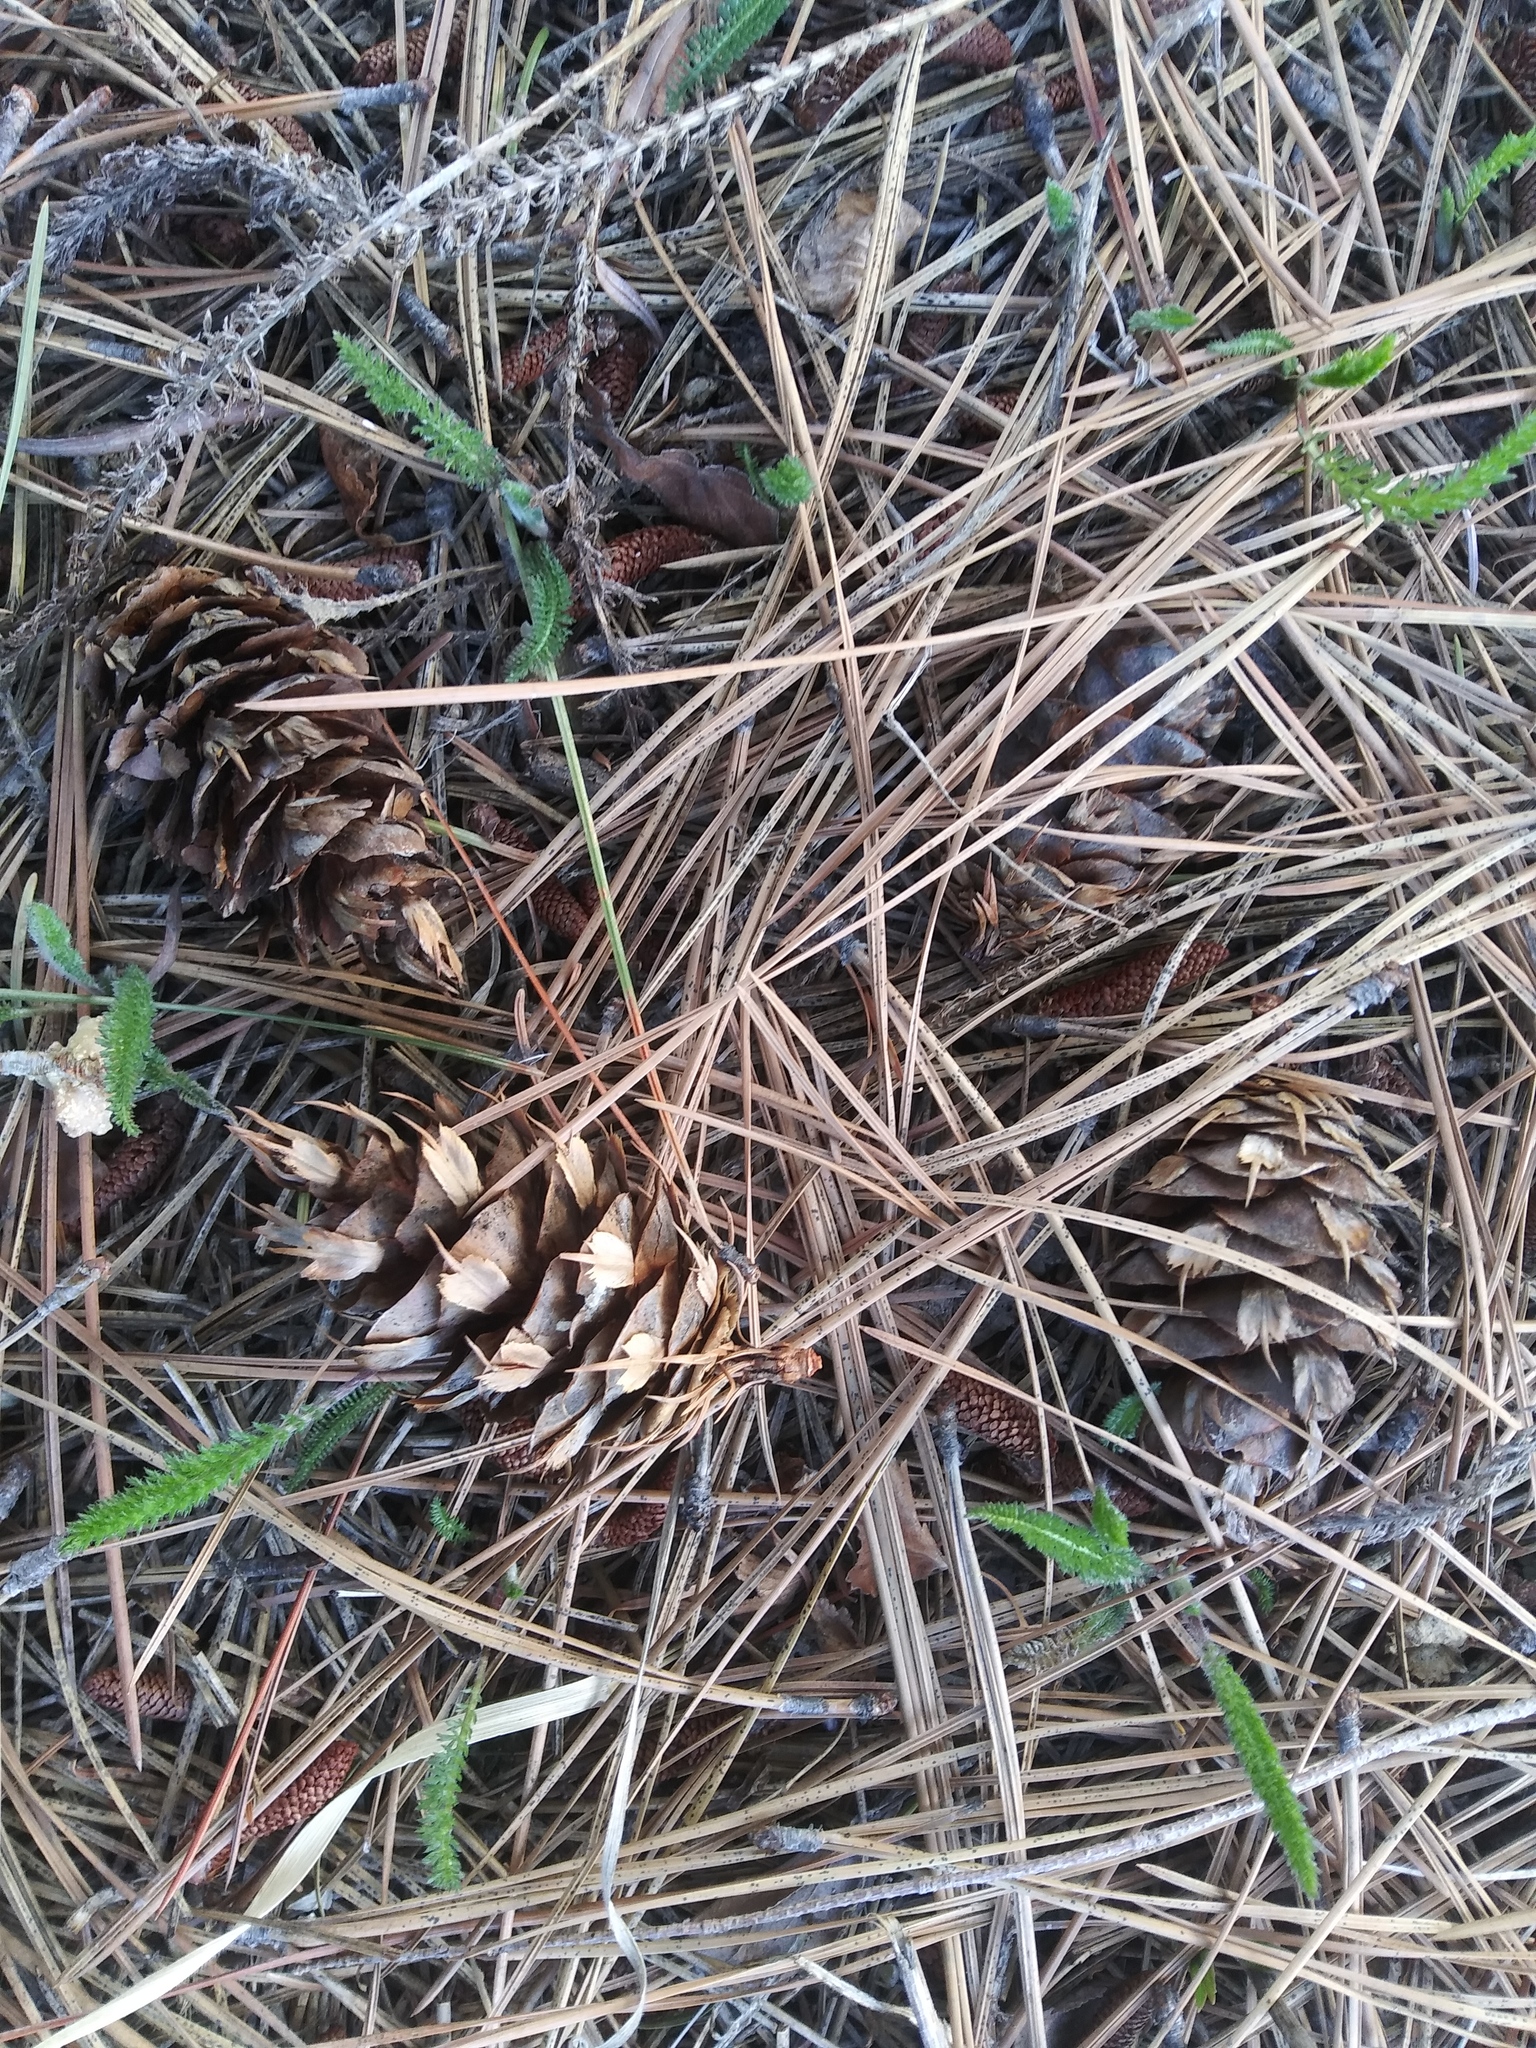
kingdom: Plantae
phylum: Tracheophyta
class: Pinopsida
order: Pinales
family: Pinaceae
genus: Pseudotsuga
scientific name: Pseudotsuga menziesii
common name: Douglas fir
